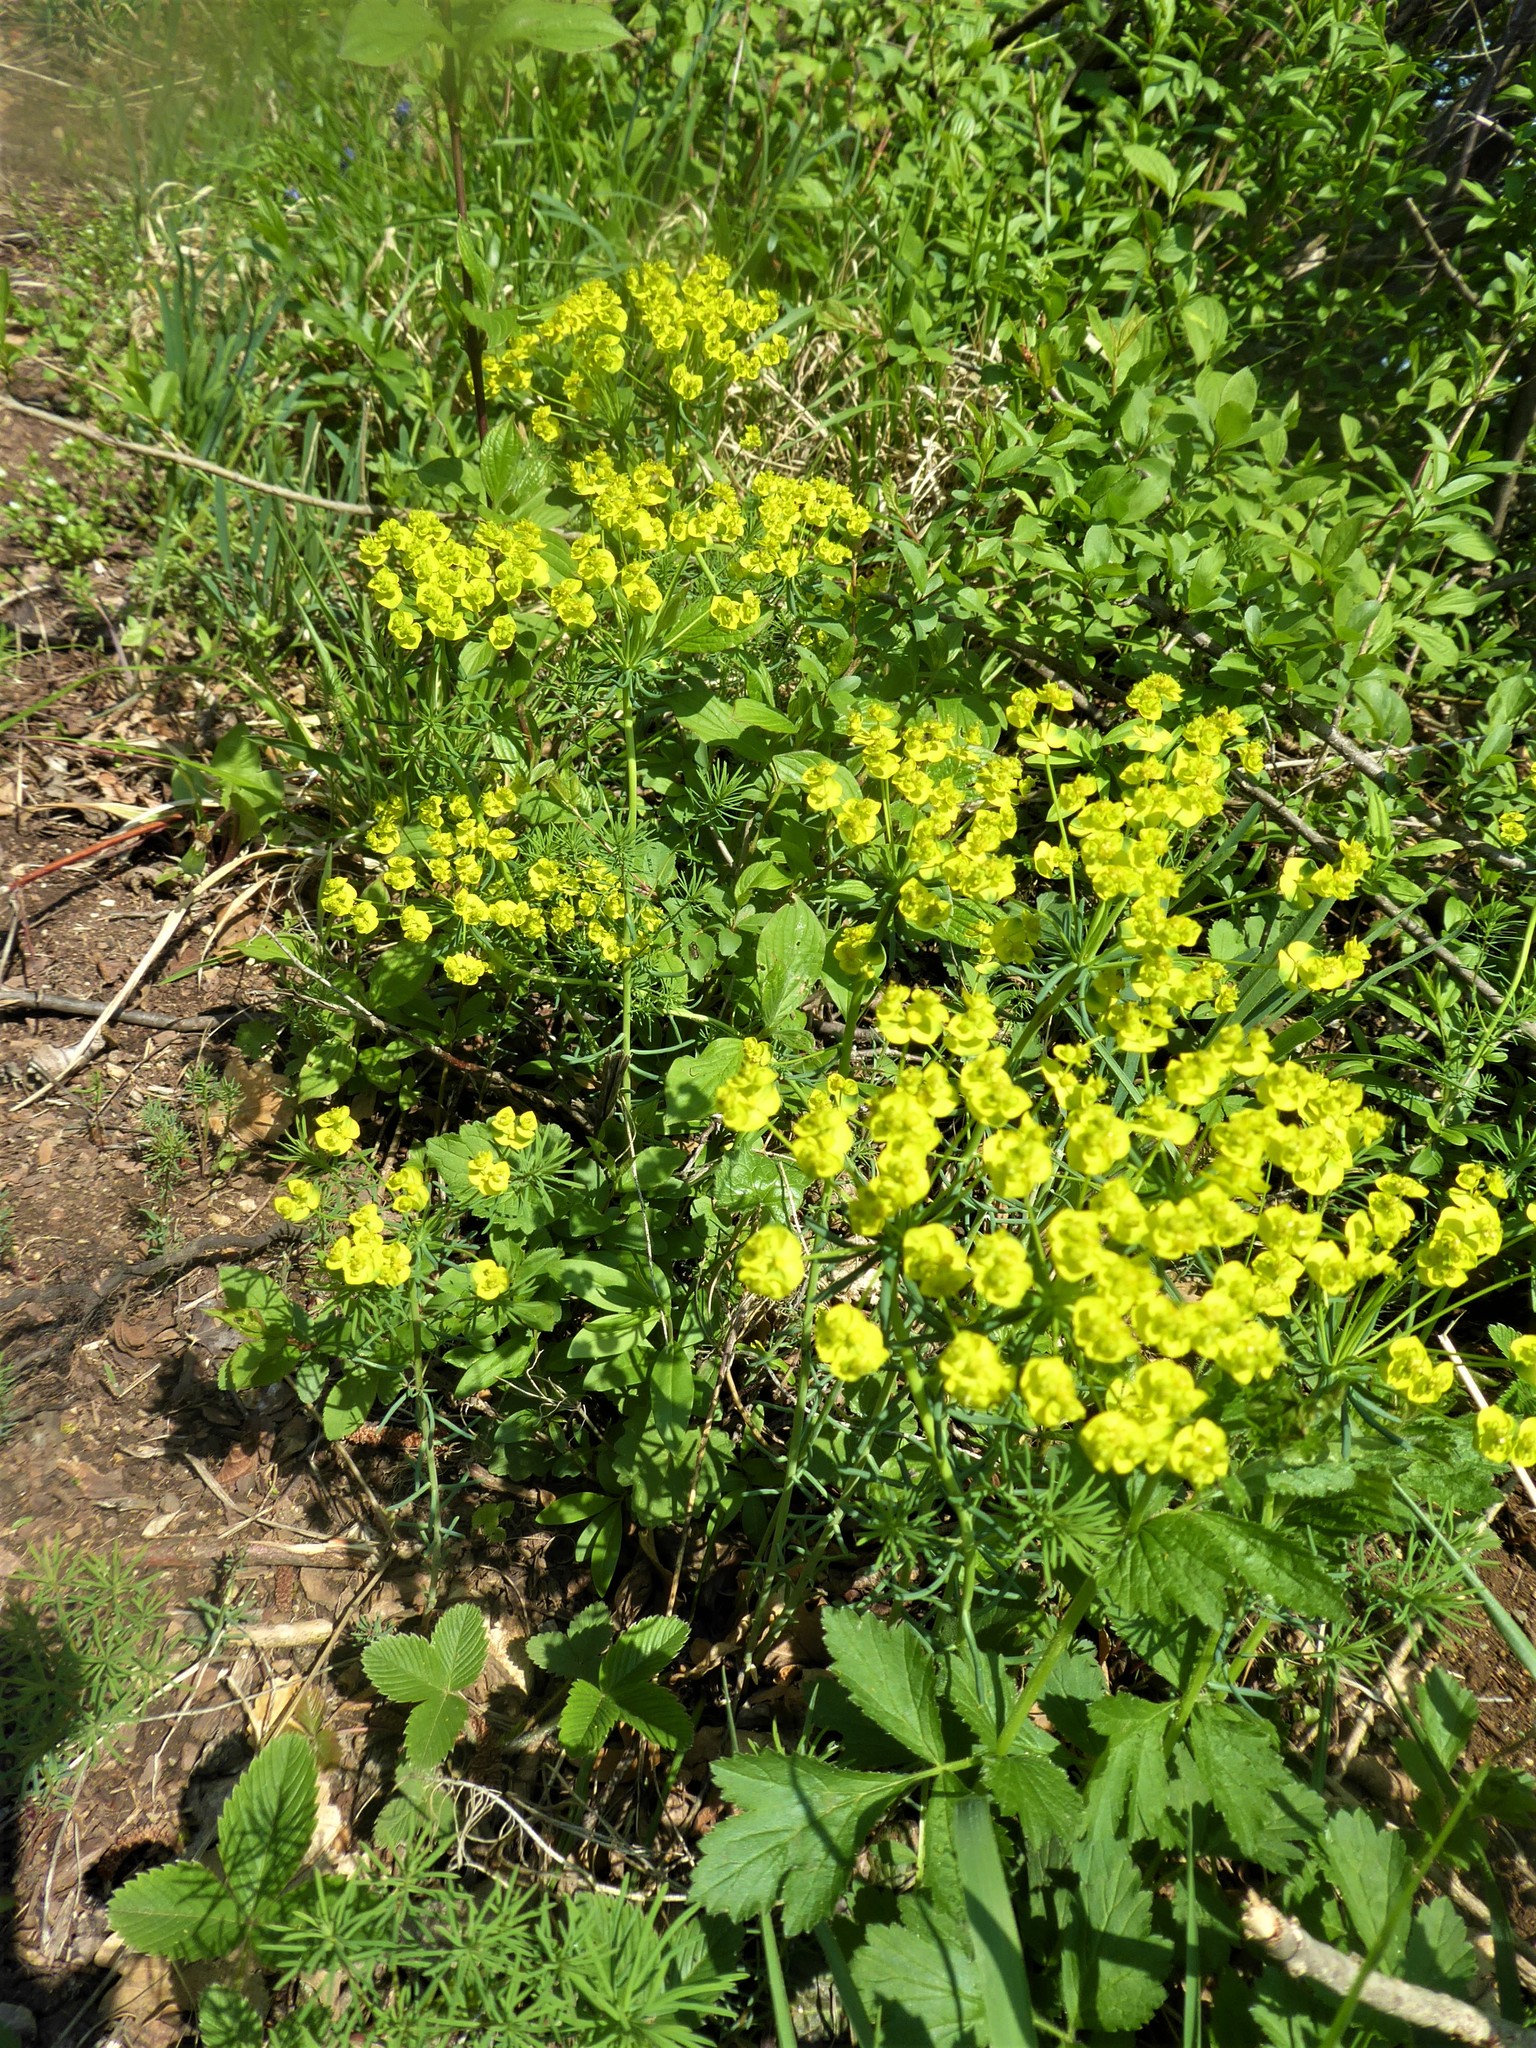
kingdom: Plantae
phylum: Tracheophyta
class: Magnoliopsida
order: Malpighiales
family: Euphorbiaceae
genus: Euphorbia
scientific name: Euphorbia cyparissias
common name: Cypress spurge
